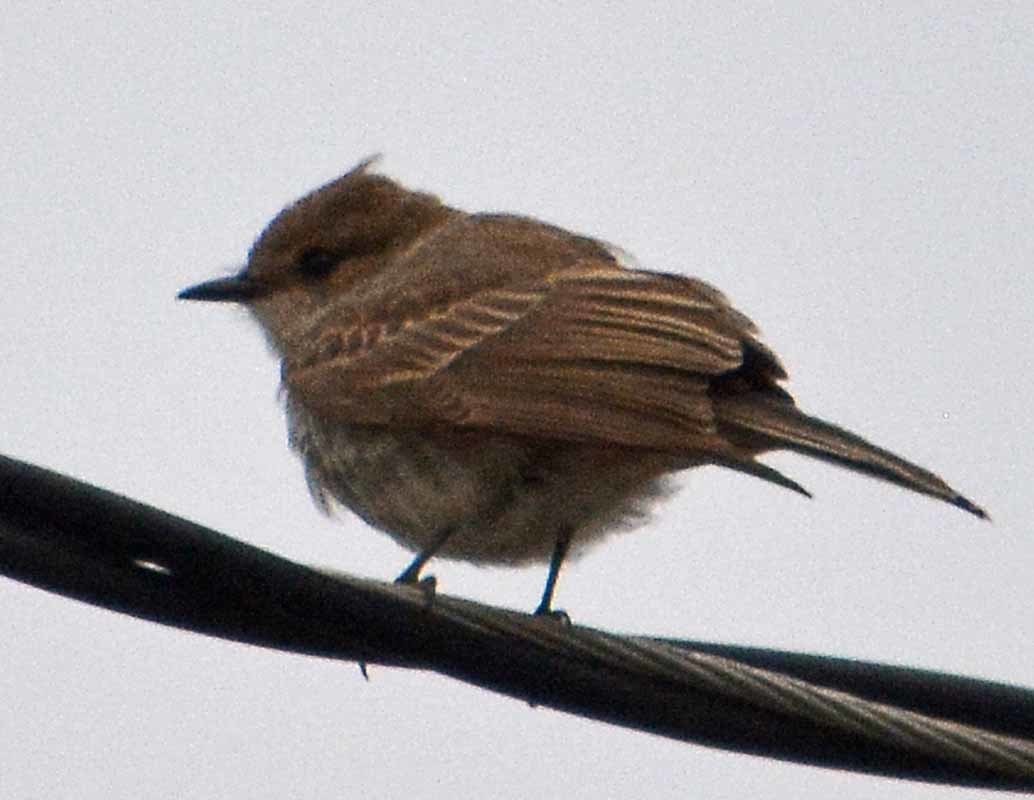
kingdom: Animalia
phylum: Chordata
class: Aves
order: Passeriformes
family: Tyrannidae
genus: Pyrocephalus
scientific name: Pyrocephalus rubinus
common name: Vermilion flycatcher
